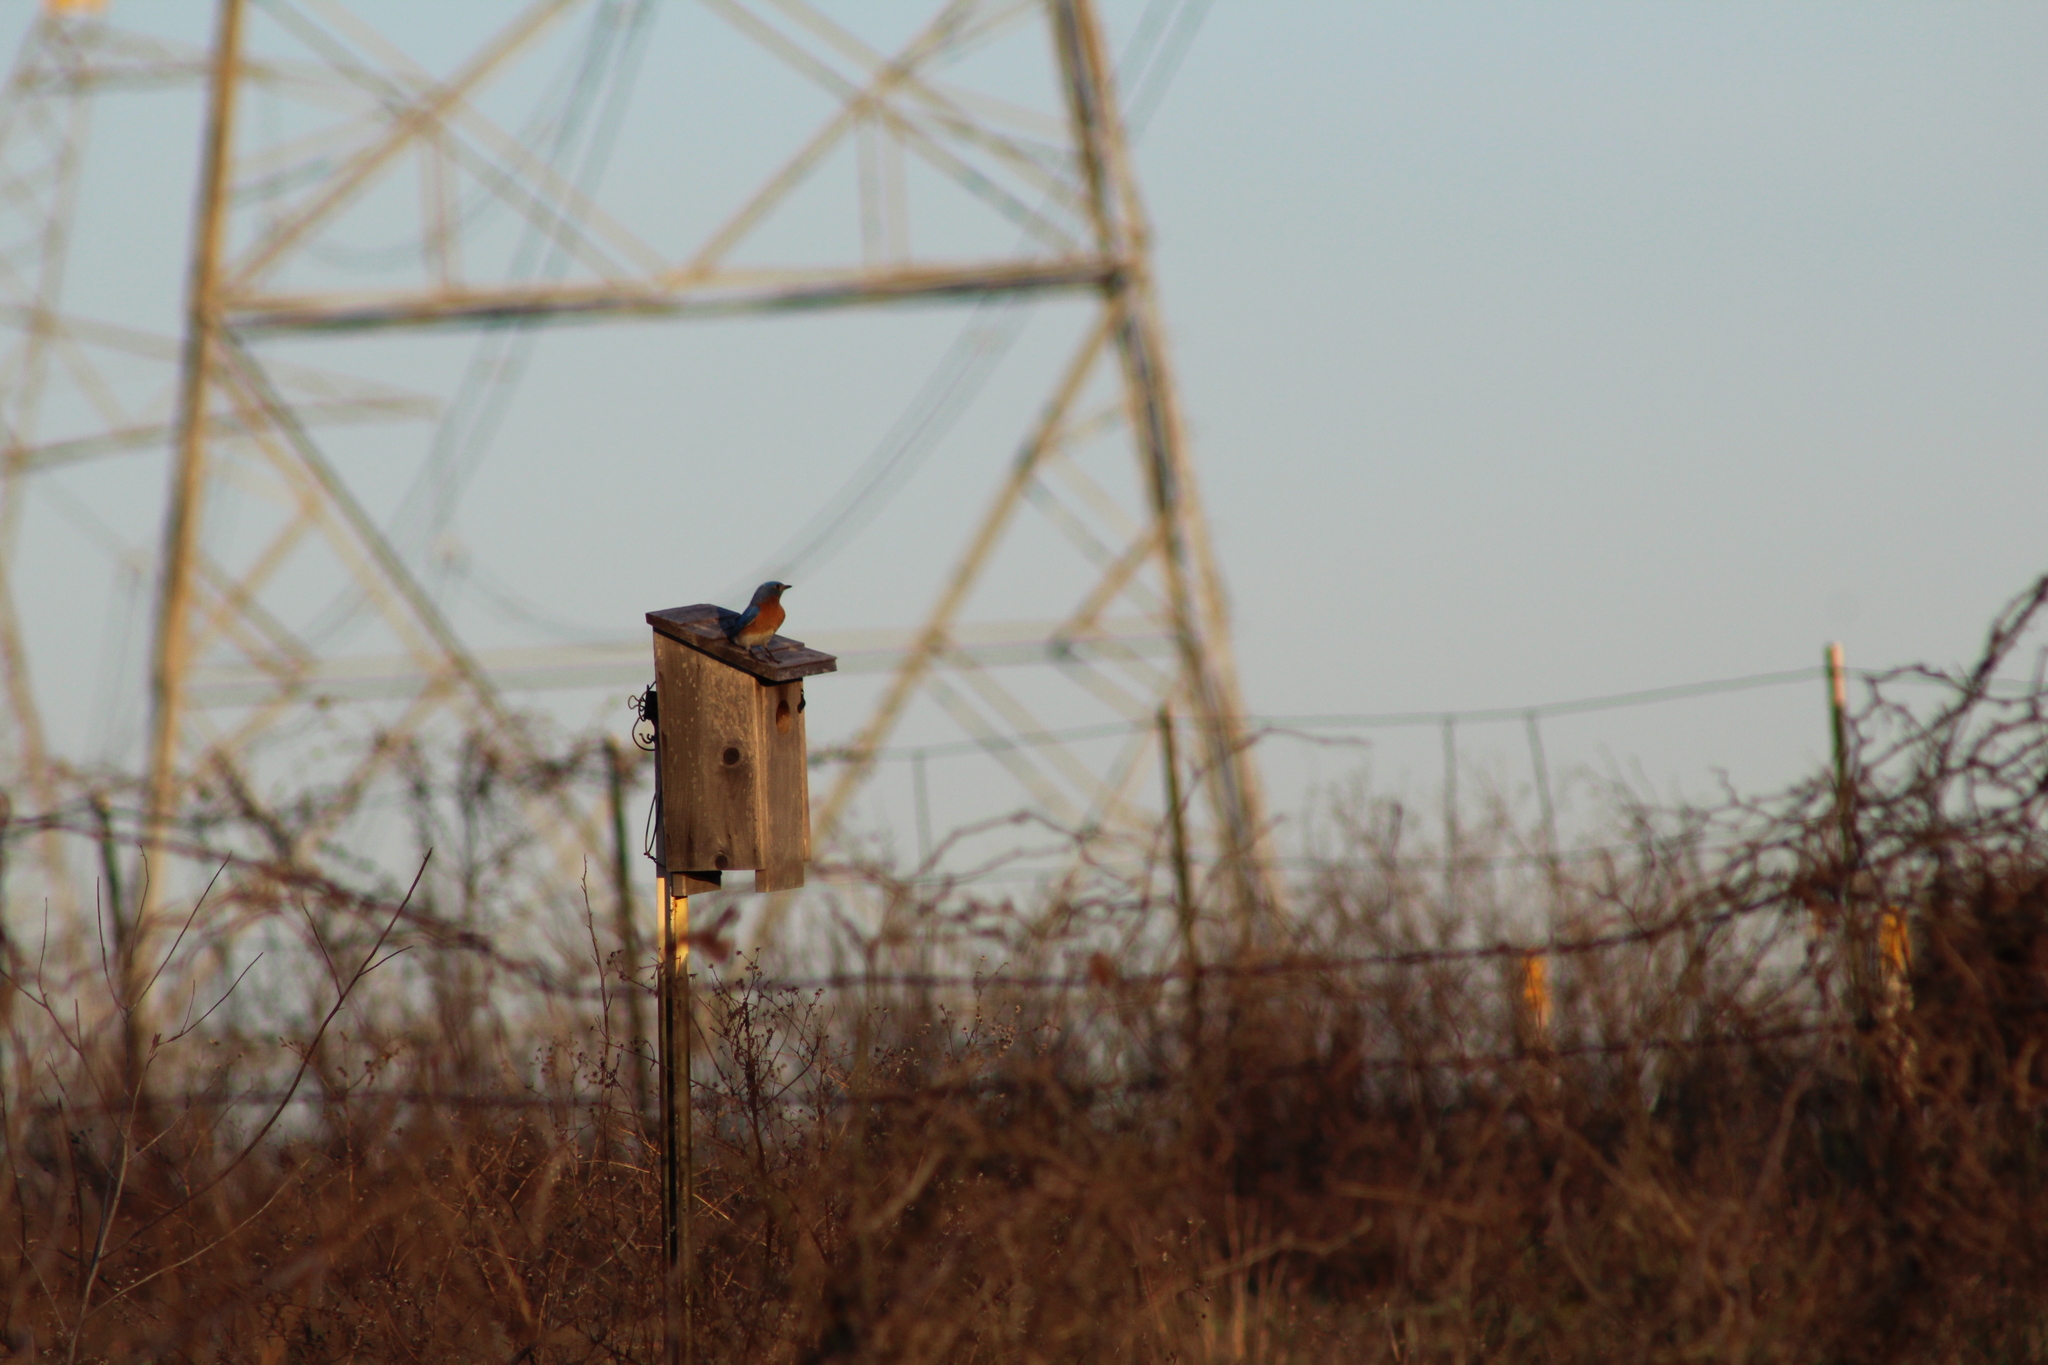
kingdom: Animalia
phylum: Chordata
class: Aves
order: Passeriformes
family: Turdidae
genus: Sialia
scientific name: Sialia sialis
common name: Eastern bluebird
